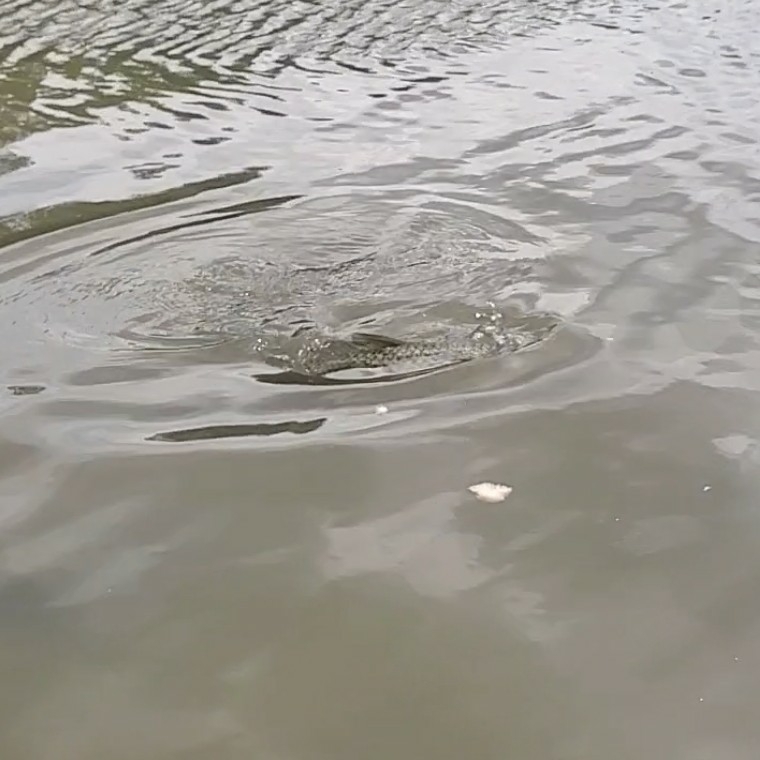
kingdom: Animalia
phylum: Chordata
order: Cypriniformes
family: Cyprinidae
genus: Cyprinus
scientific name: Cyprinus carpio
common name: Common carp
